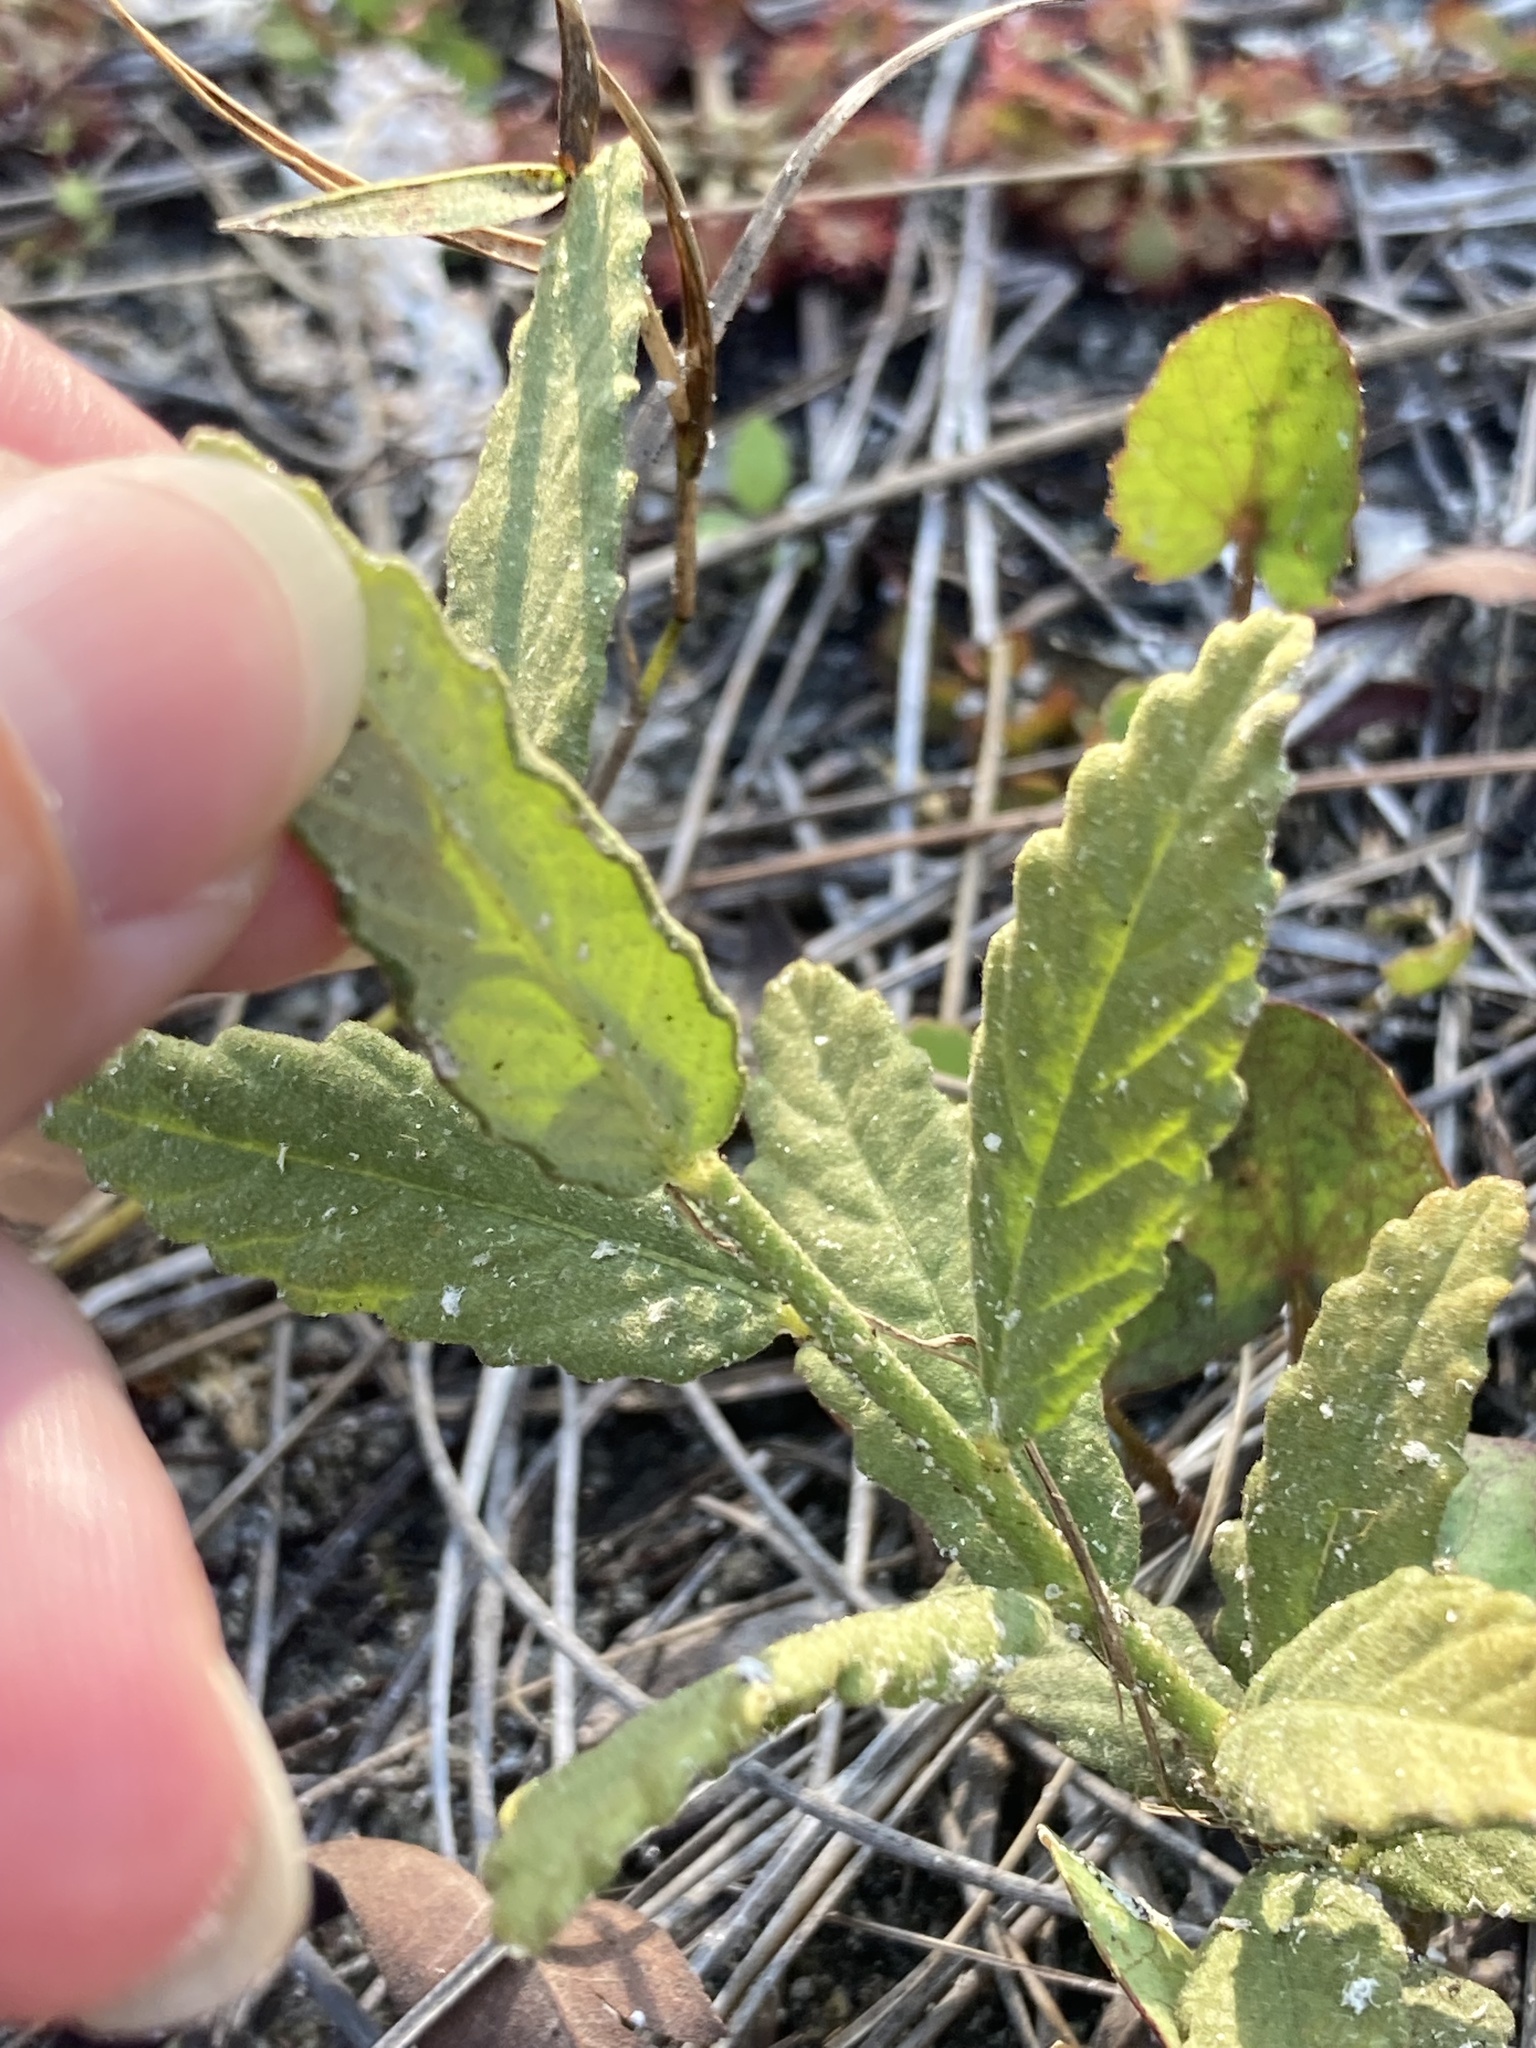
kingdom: Plantae
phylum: Tracheophyta
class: Magnoliopsida
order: Malpighiales
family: Turneraceae
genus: Piriqueta
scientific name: Piriqueta cistoides
